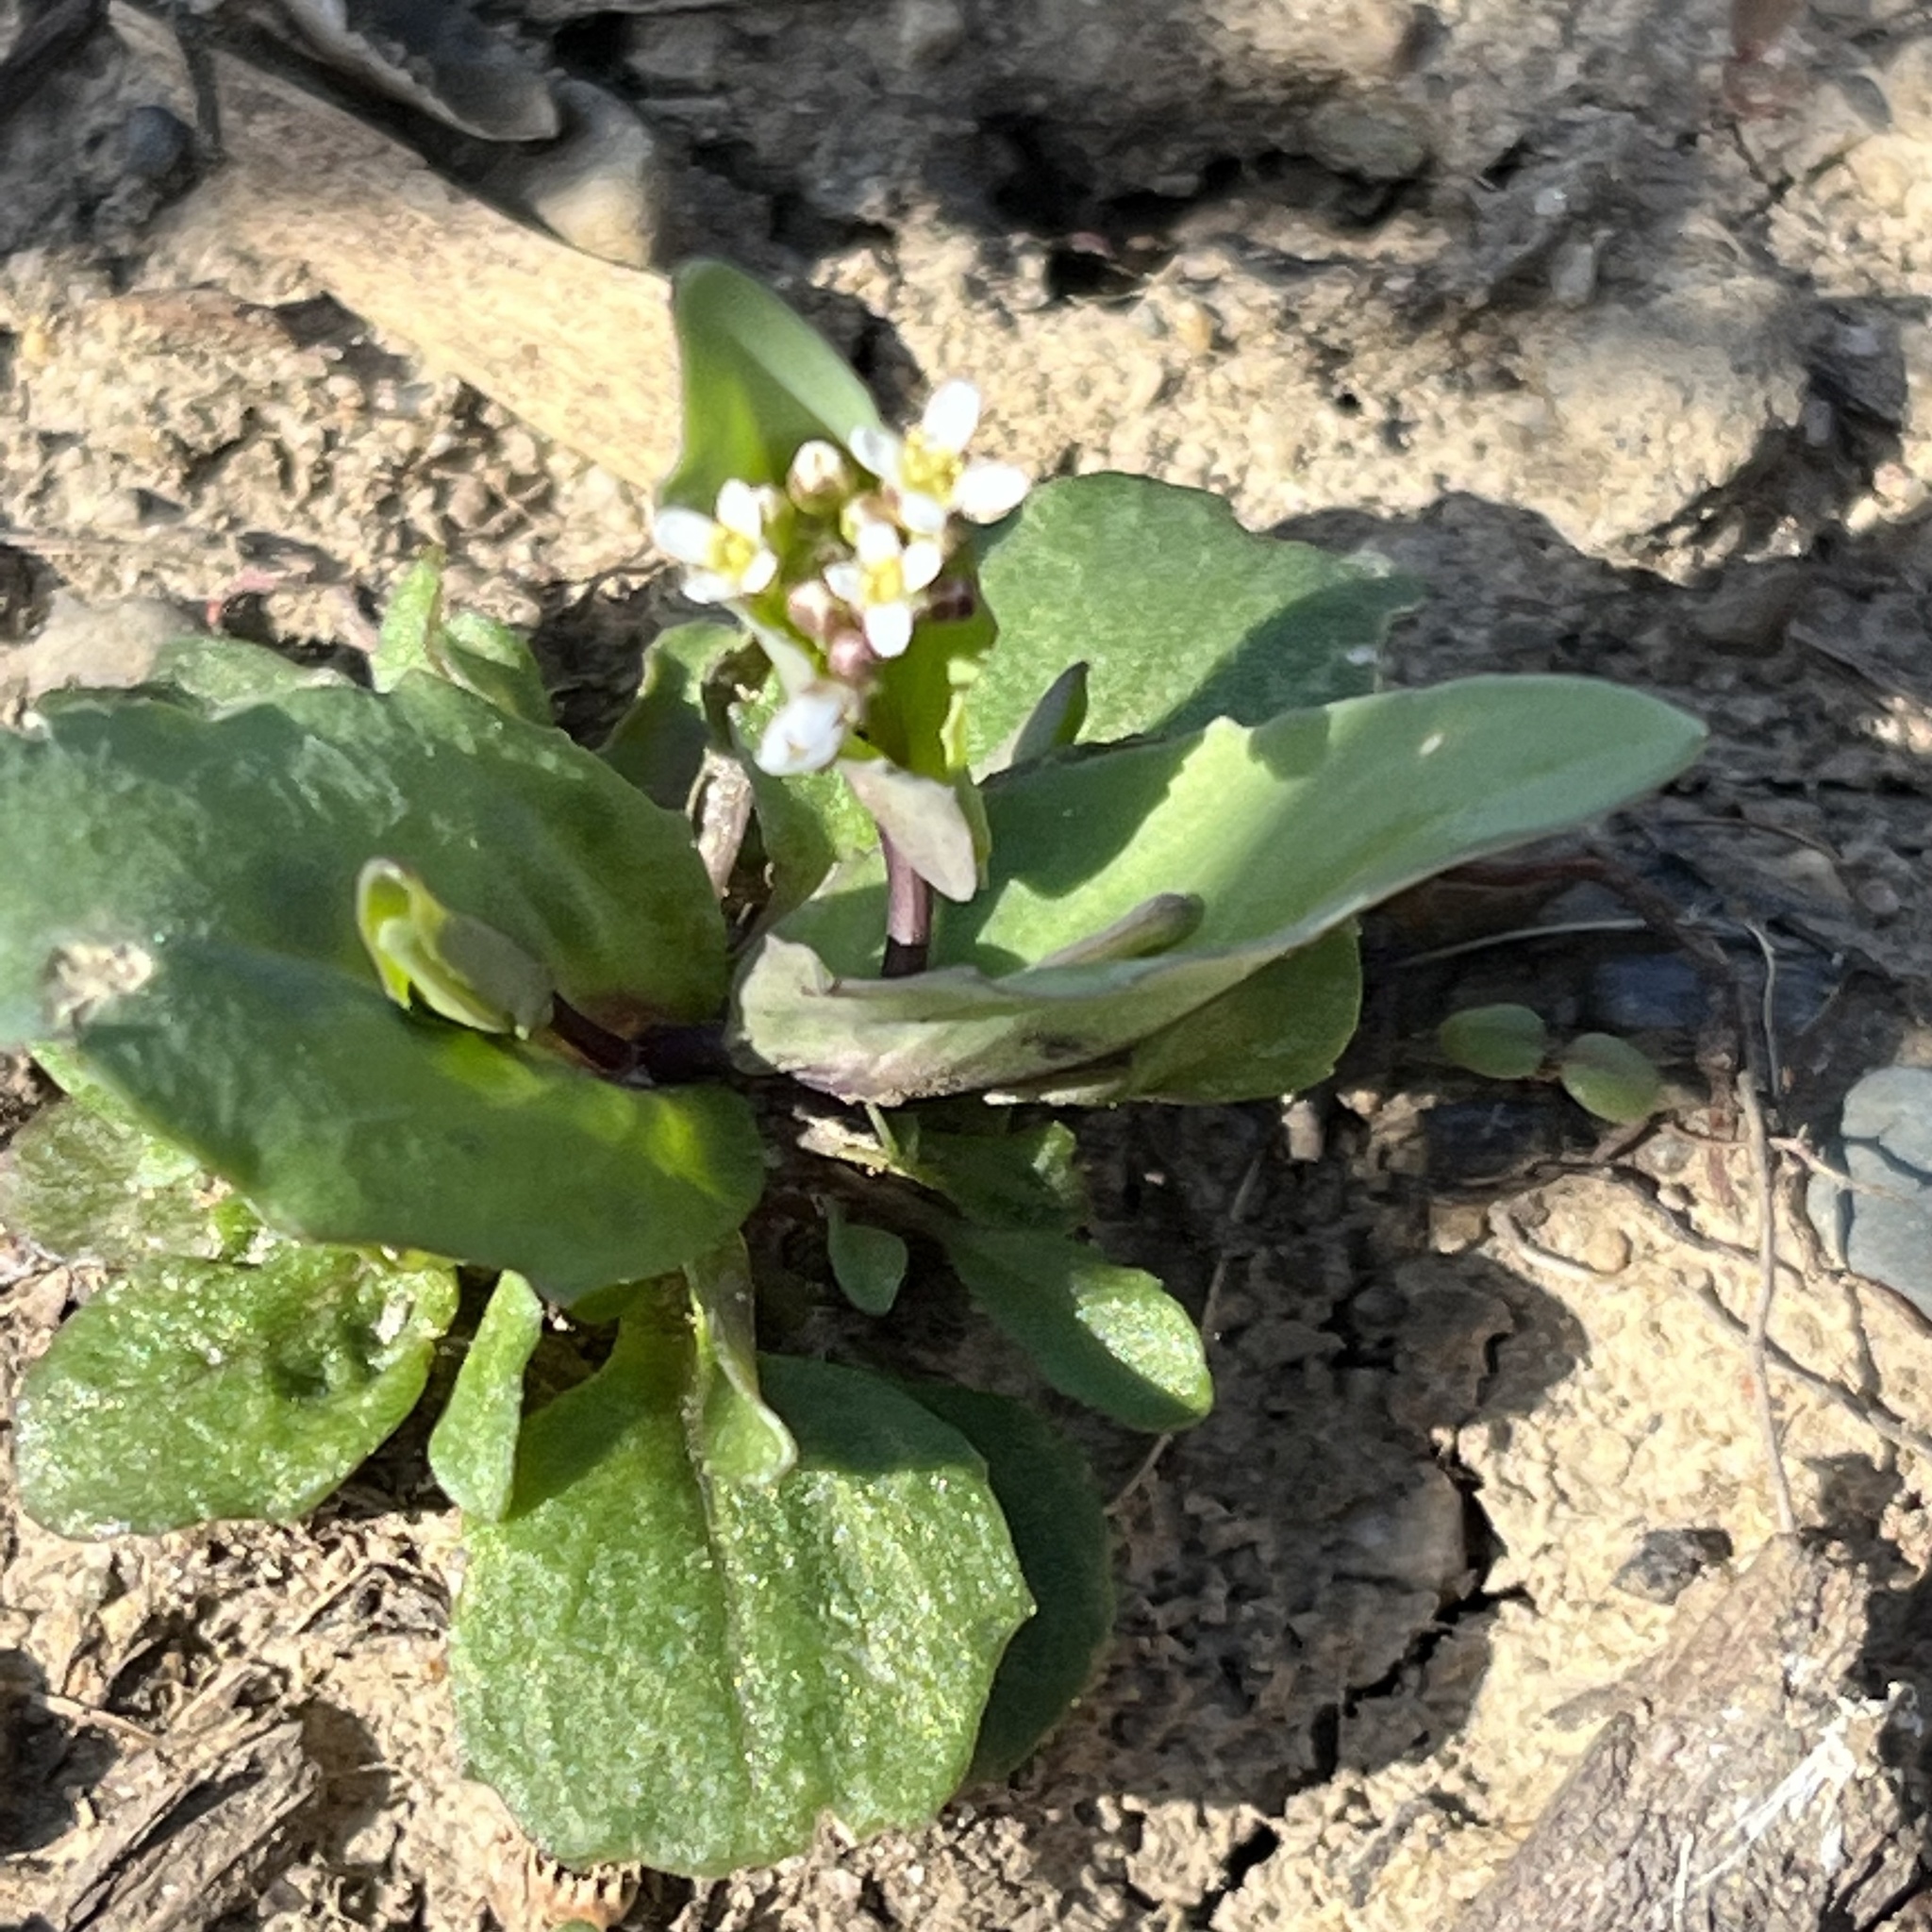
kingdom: Plantae
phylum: Tracheophyta
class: Magnoliopsida
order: Brassicales
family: Brassicaceae
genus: Noccaea
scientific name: Noccaea perfoliata
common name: Perfoliate pennycress
